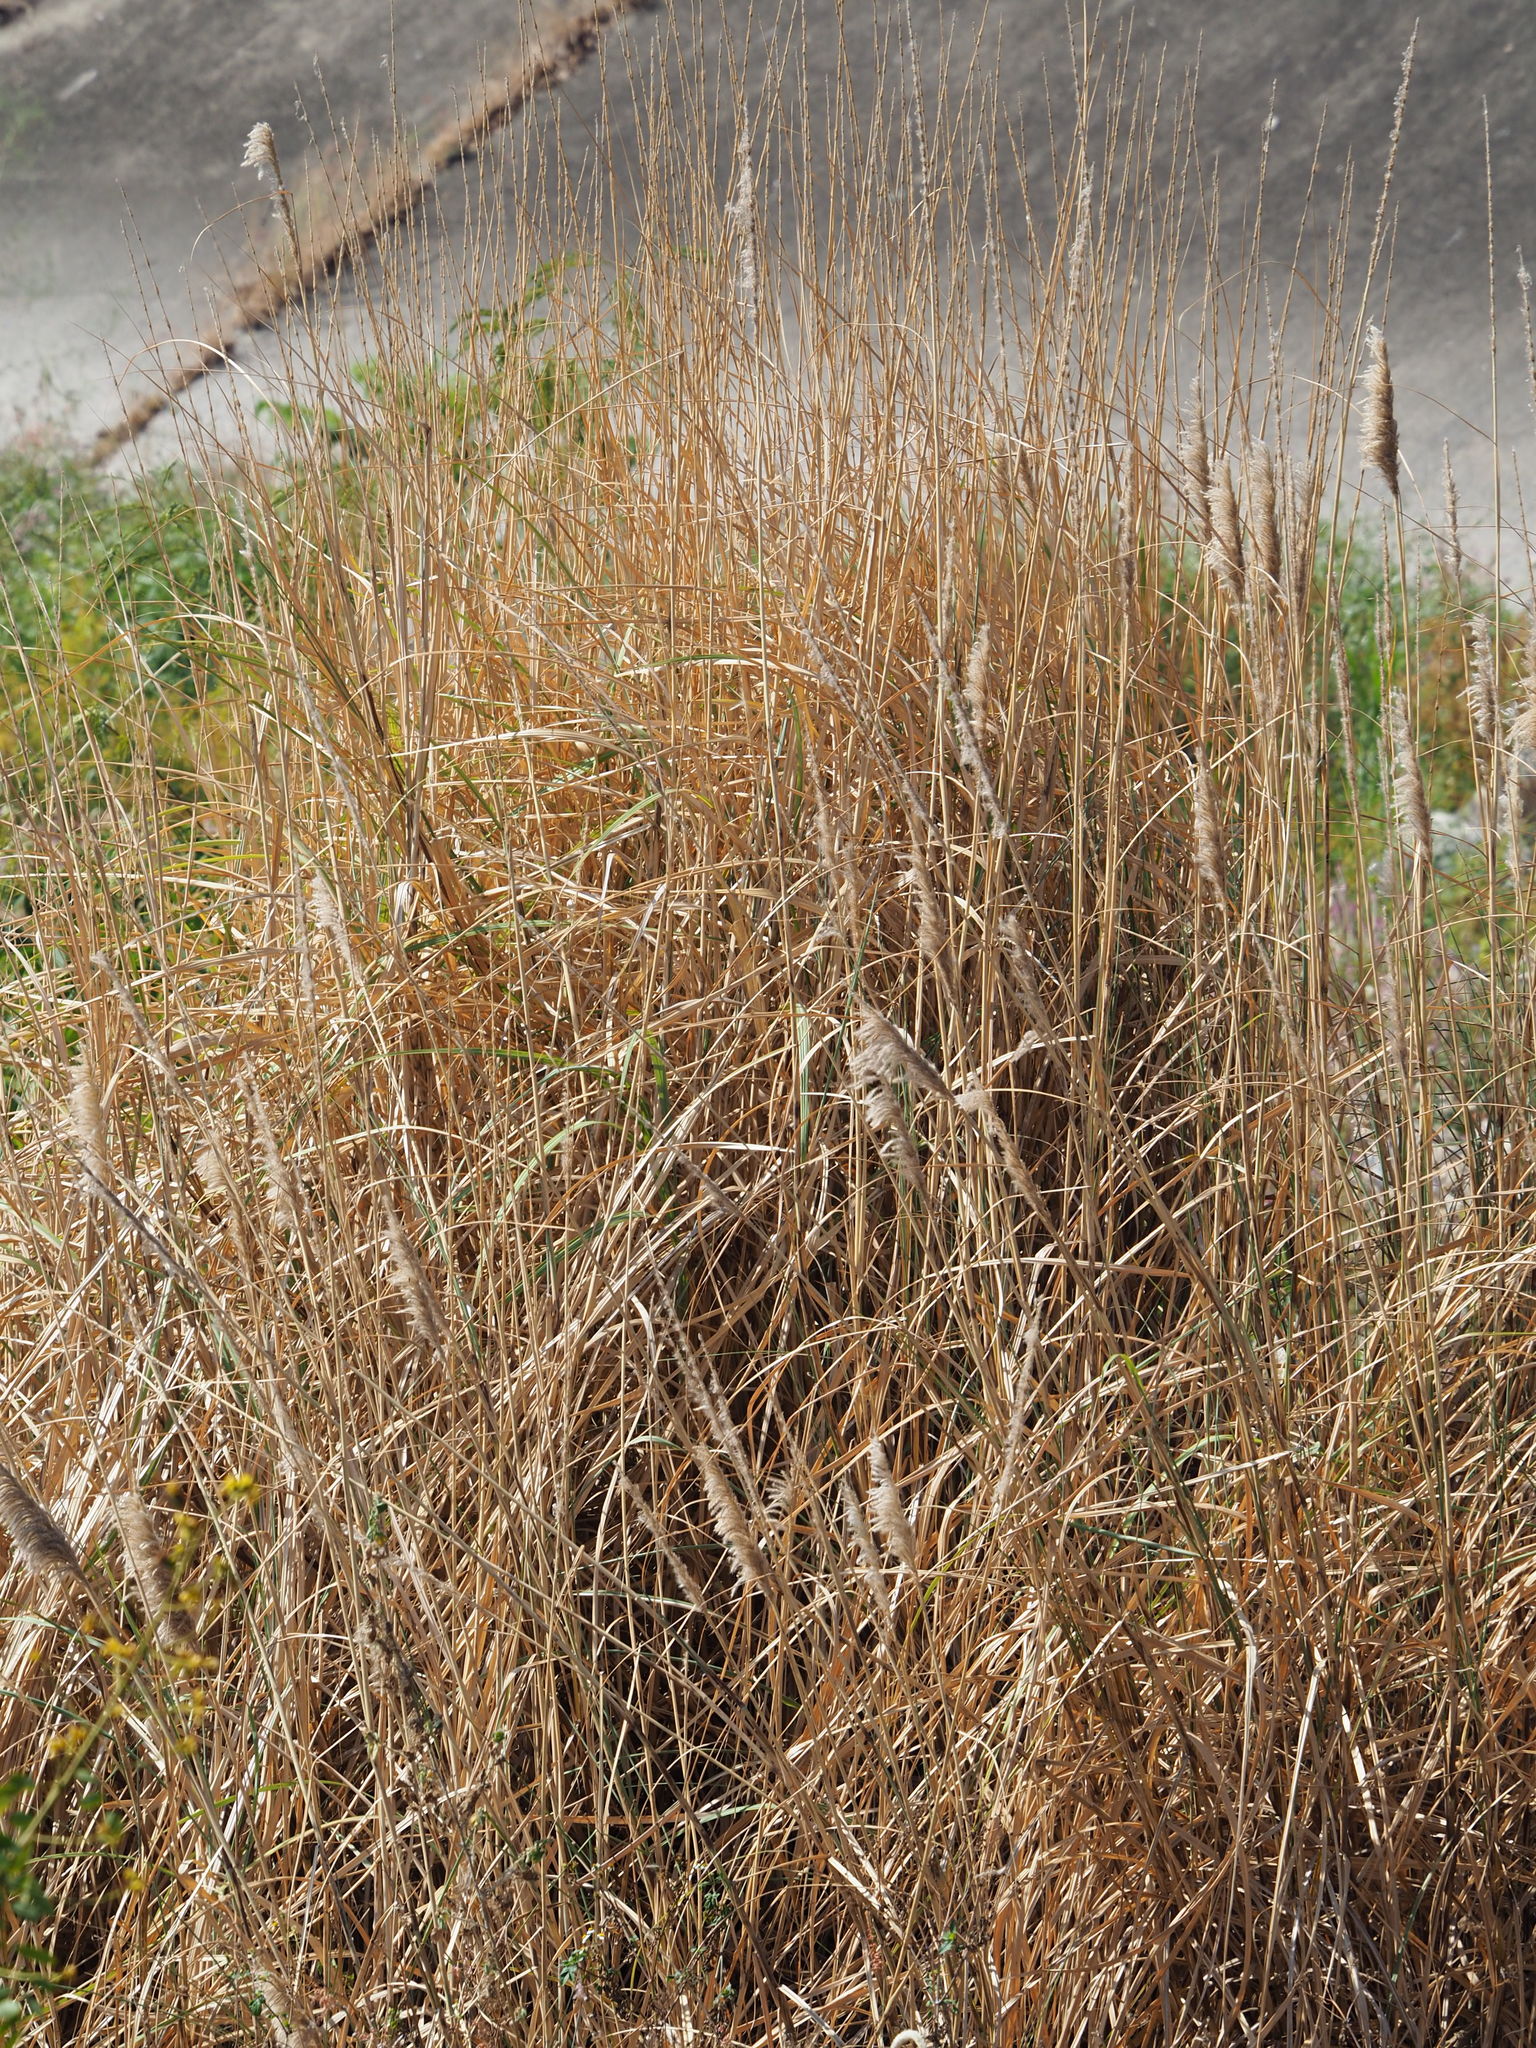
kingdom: Plantae
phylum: Tracheophyta
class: Liliopsida
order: Poales
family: Poaceae
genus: Saccharum
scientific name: Saccharum spontaneum
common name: Wild sugarcane
